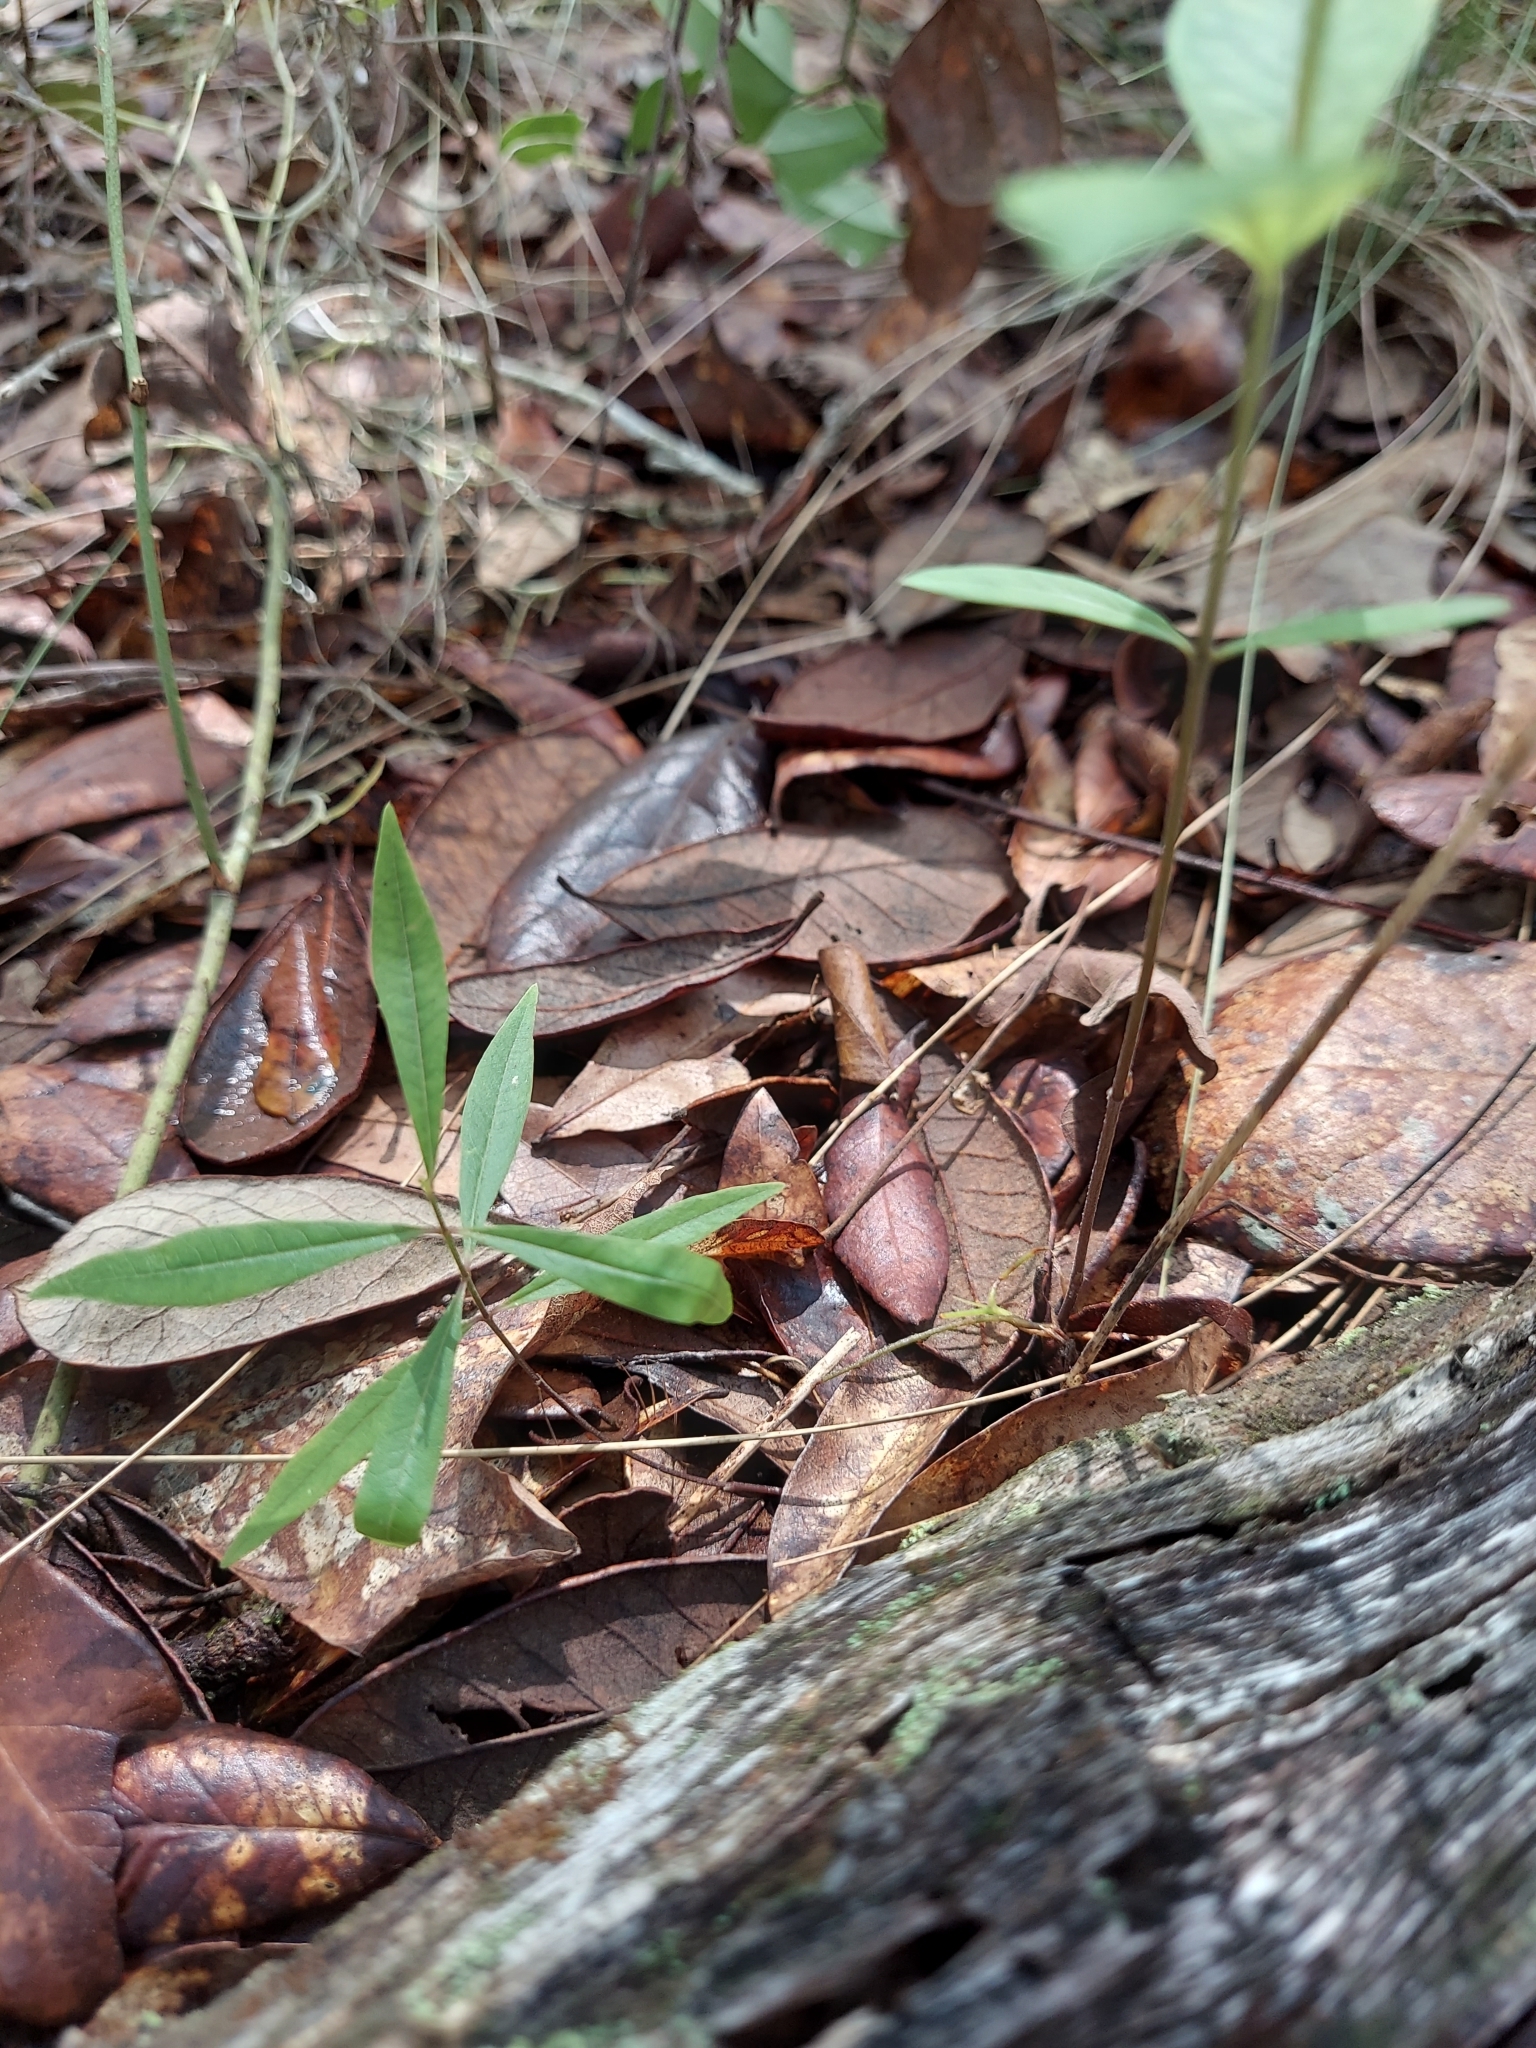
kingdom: Plantae
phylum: Tracheophyta
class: Magnoliopsida
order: Gentianales
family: Apocynaceae
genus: Asclepias
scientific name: Asclepias tomentosa
